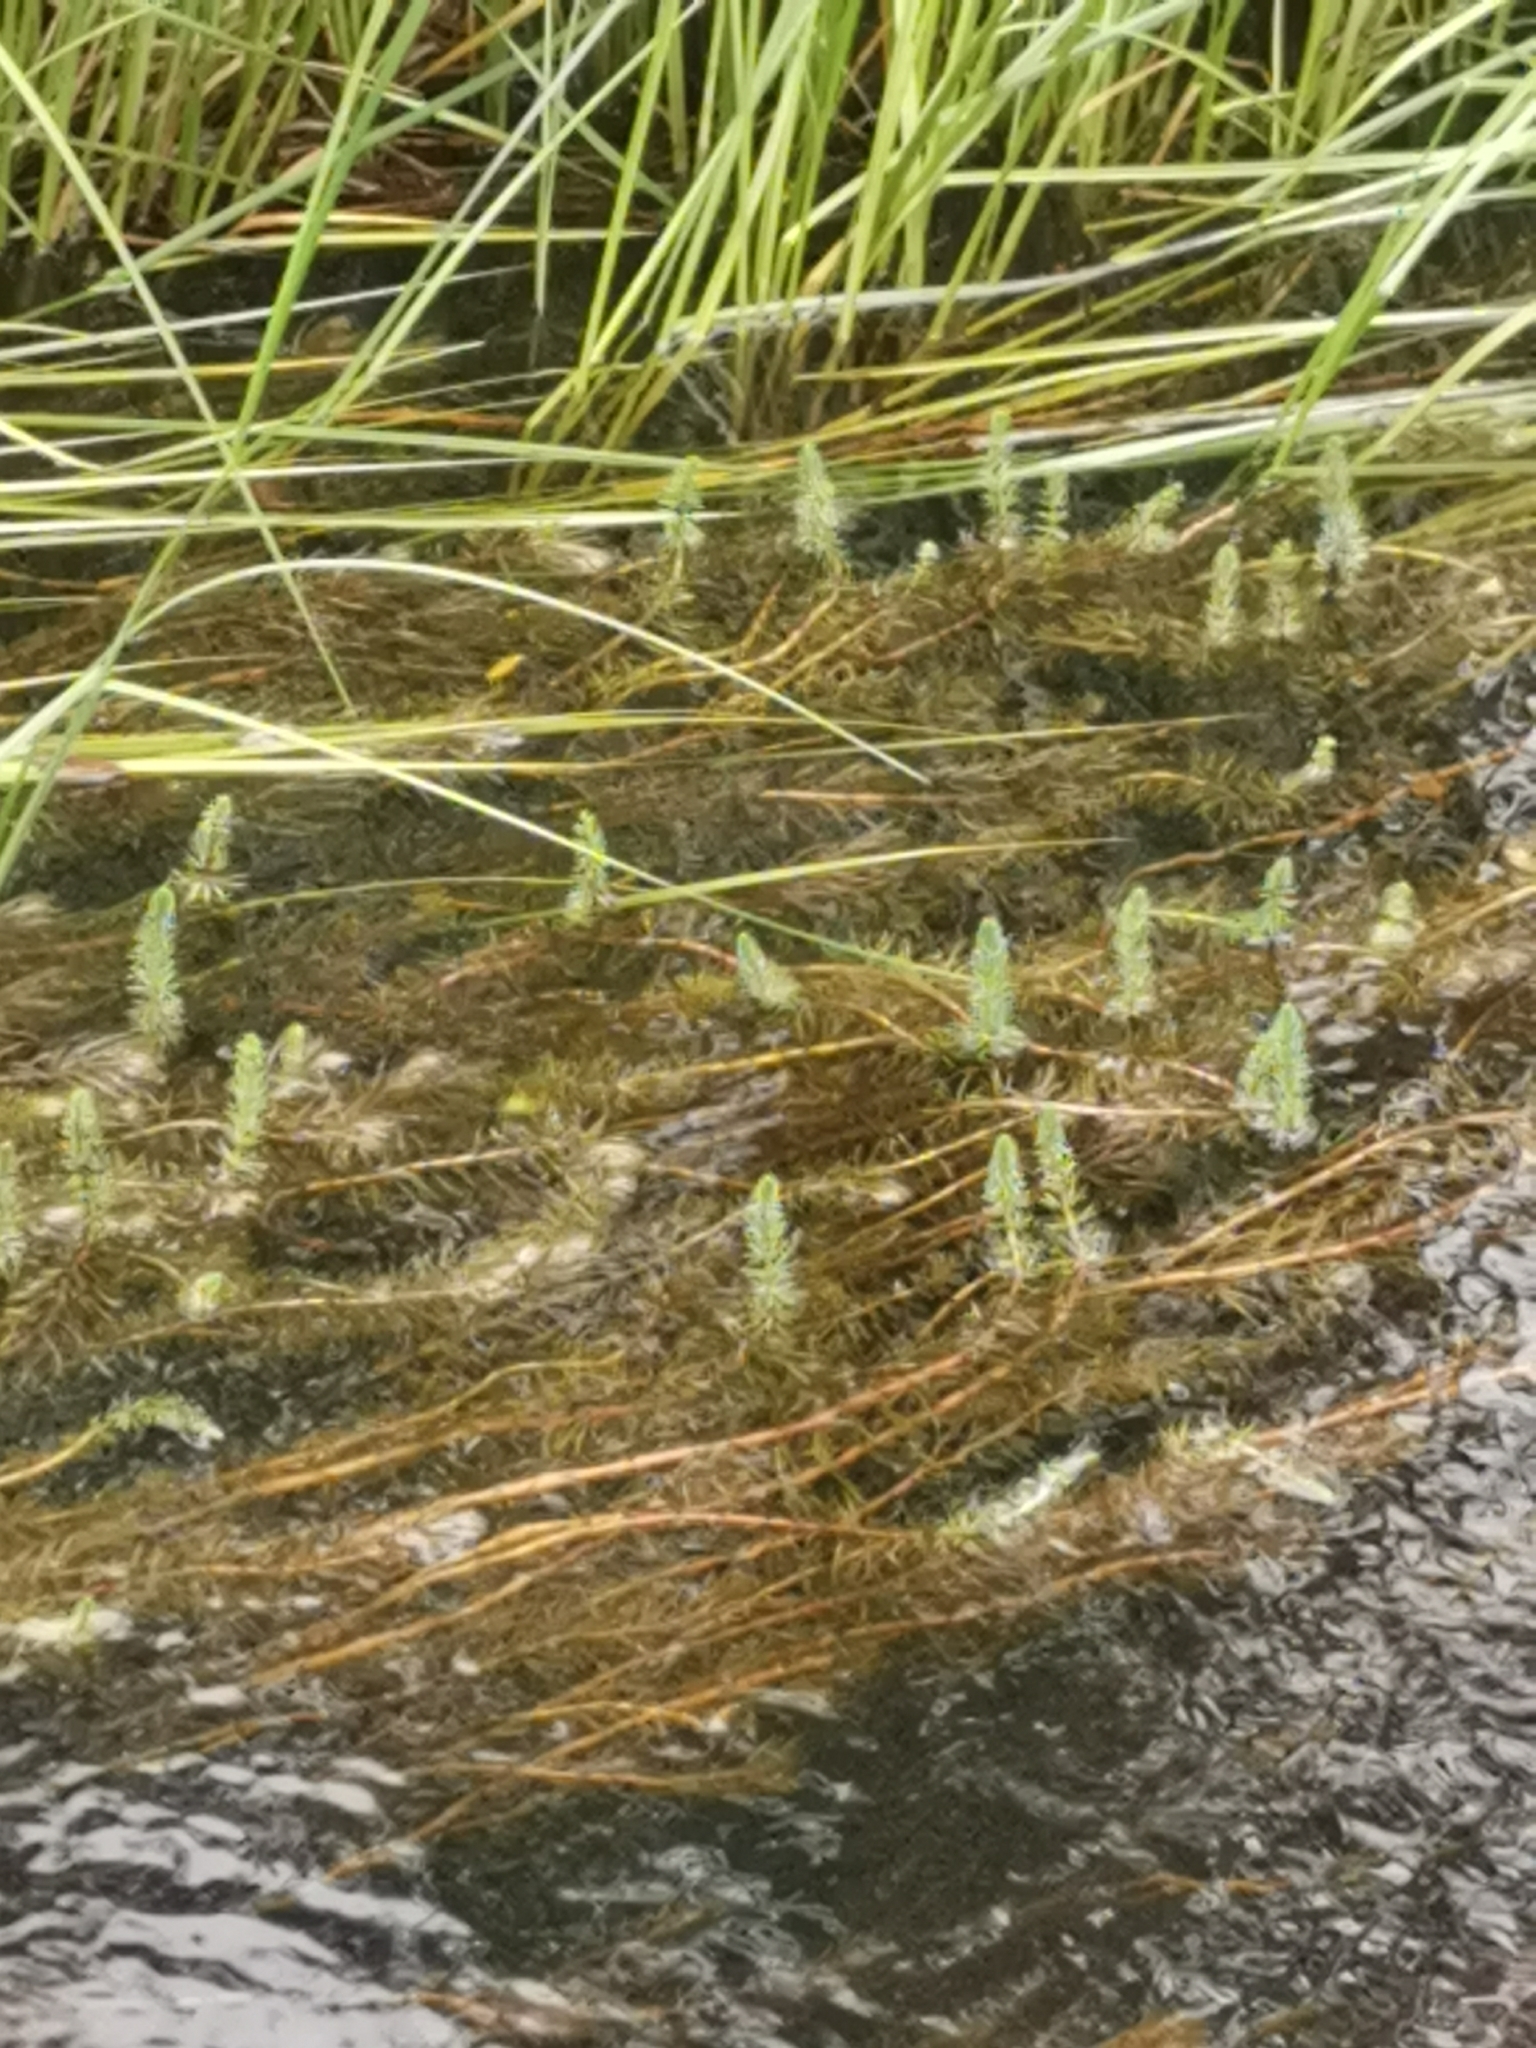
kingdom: Plantae
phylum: Tracheophyta
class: Magnoliopsida
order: Lamiales
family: Plantaginaceae
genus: Hippuris
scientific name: Hippuris vulgaris
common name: Mare's-tail
